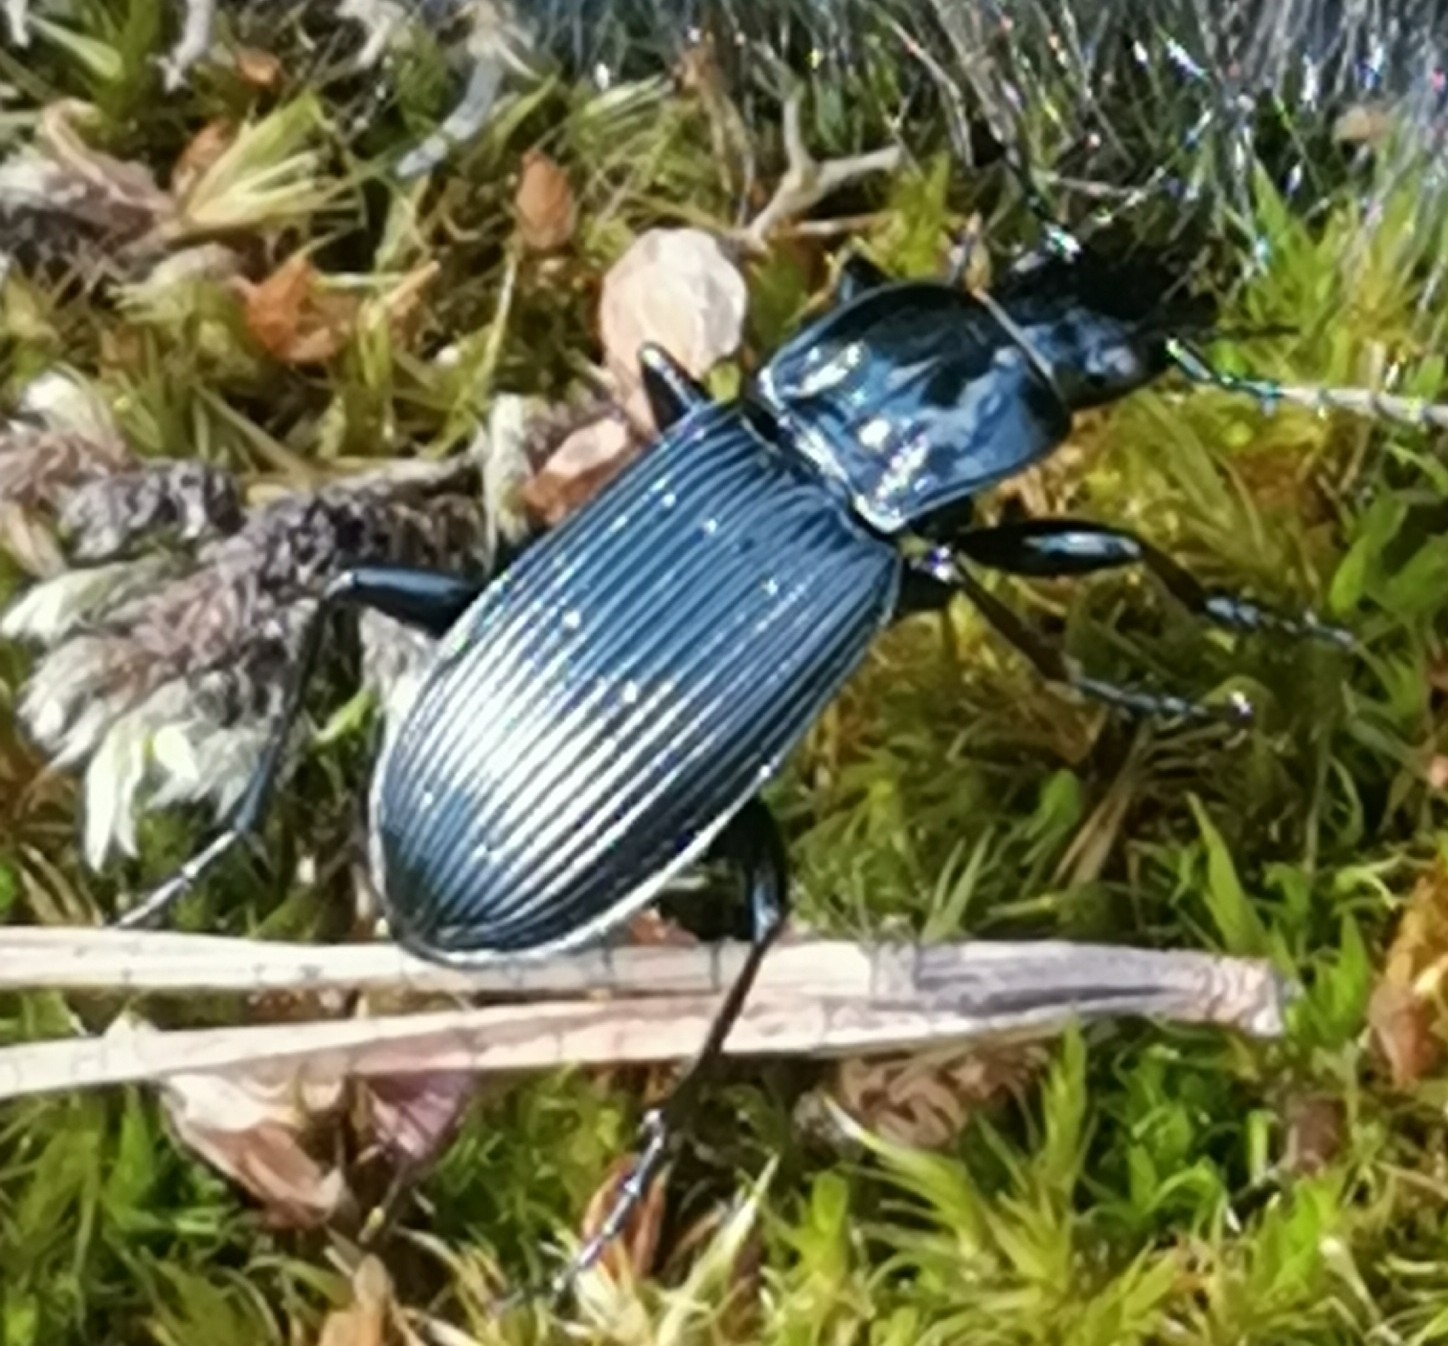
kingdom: Animalia
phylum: Arthropoda
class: Insecta
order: Coleoptera
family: Carabidae
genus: Pterostichus
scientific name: Pterostichus niger
